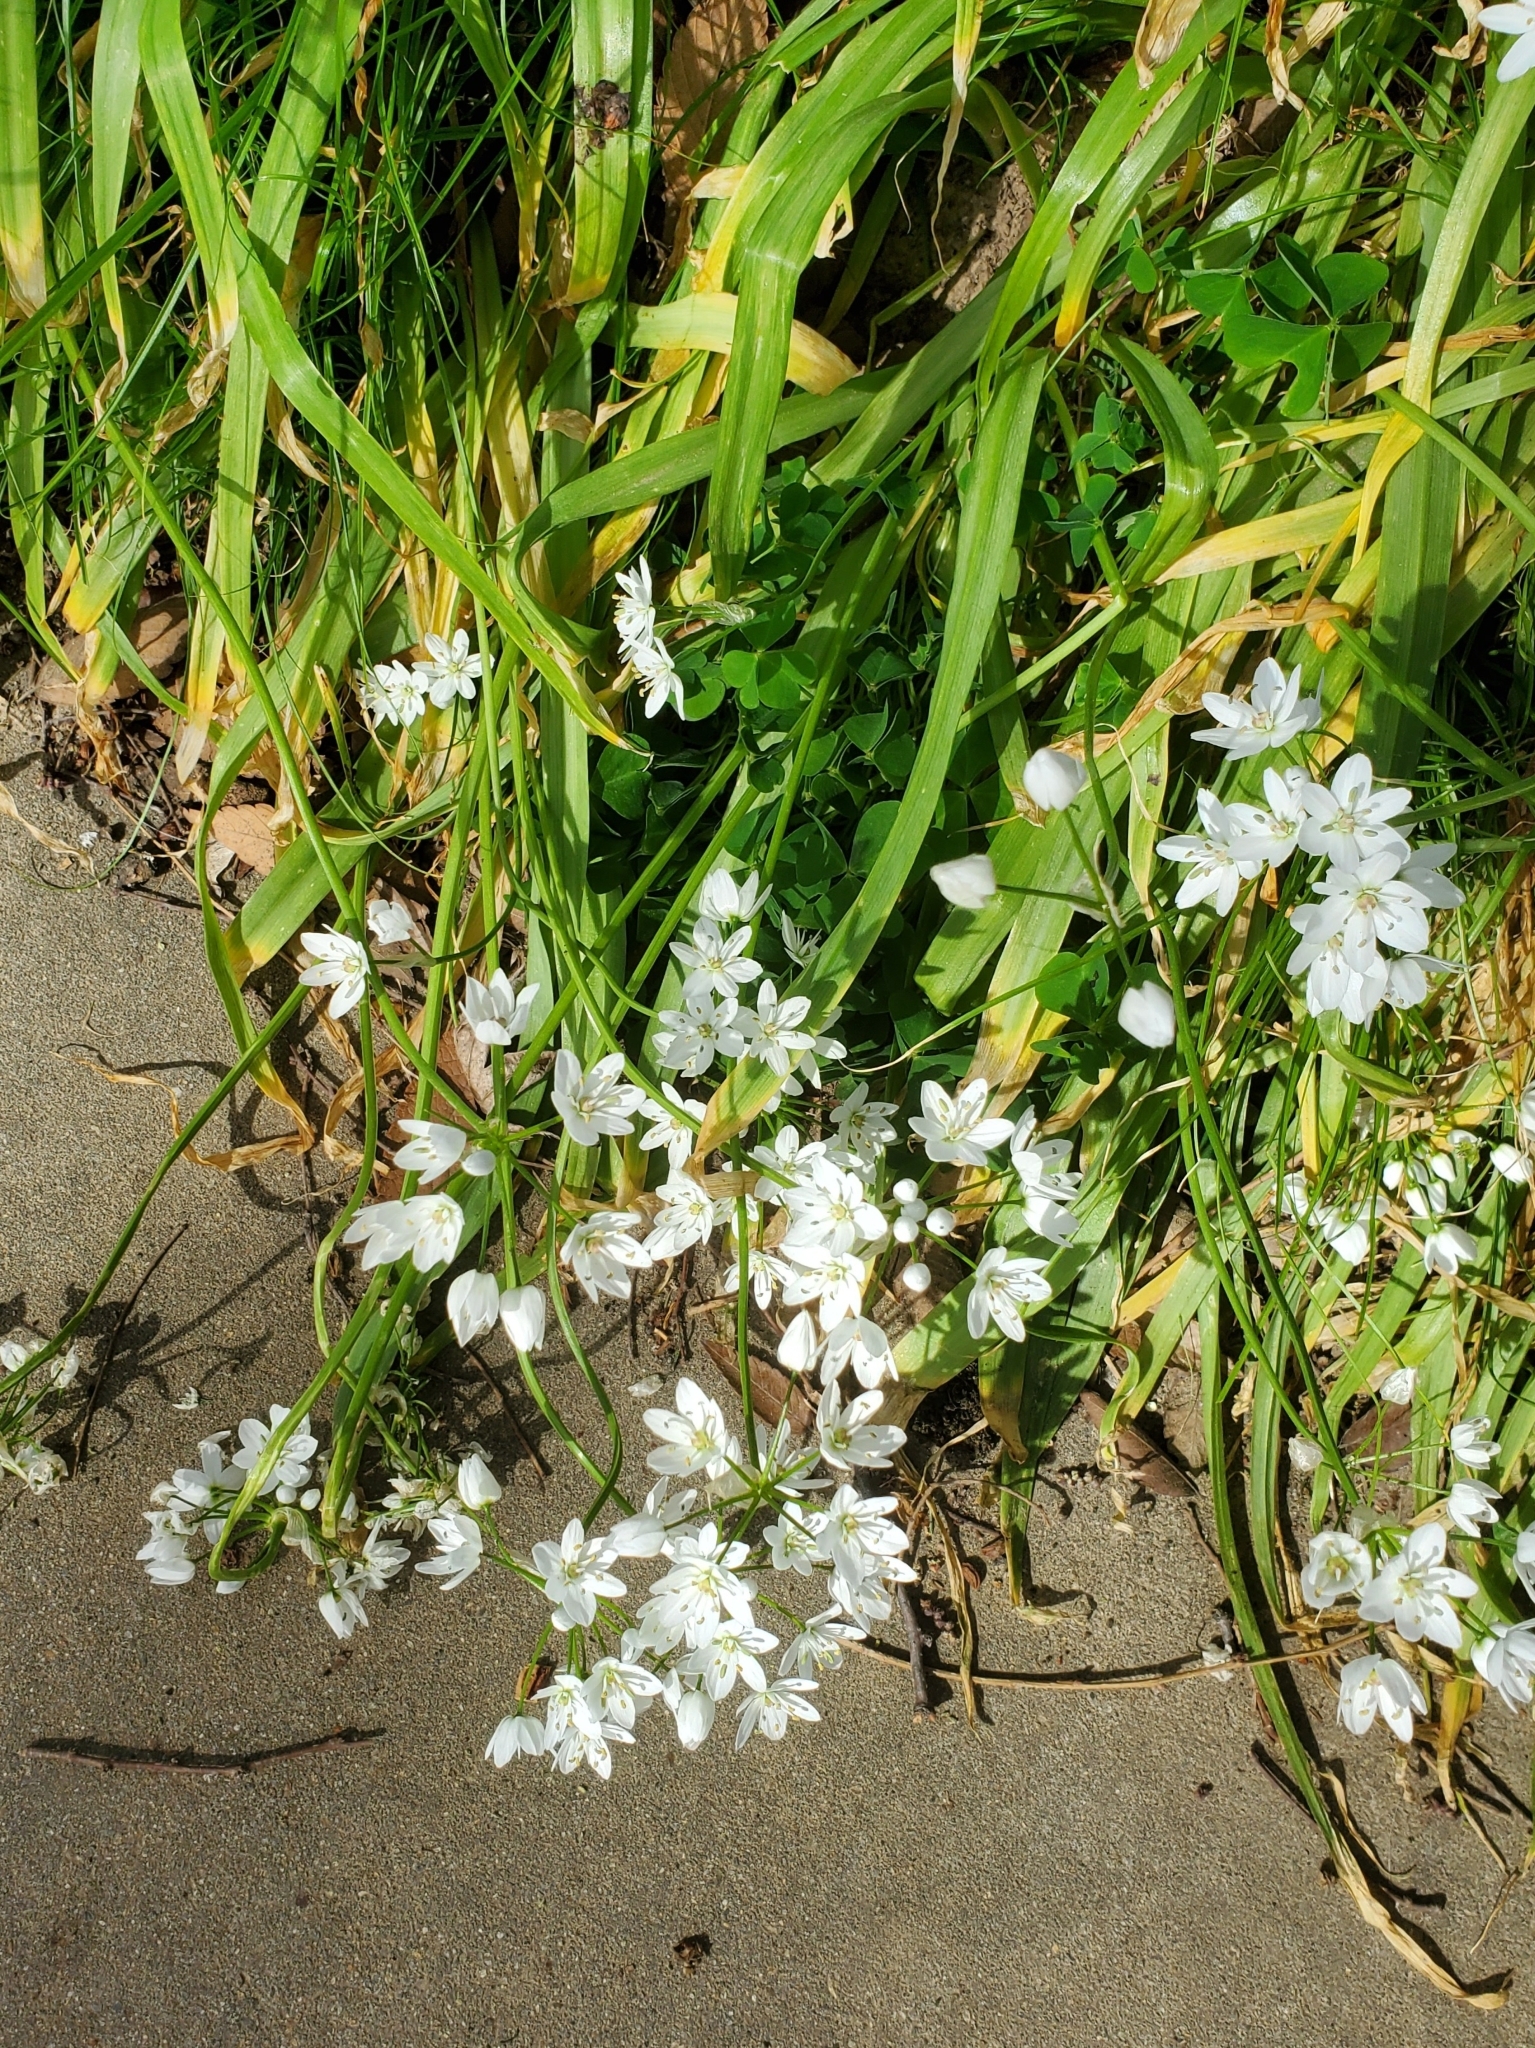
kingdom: Plantae
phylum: Tracheophyta
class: Liliopsida
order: Asparagales
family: Amaryllidaceae
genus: Allium
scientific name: Allium neapolitanum
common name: Neapolitan garlic
